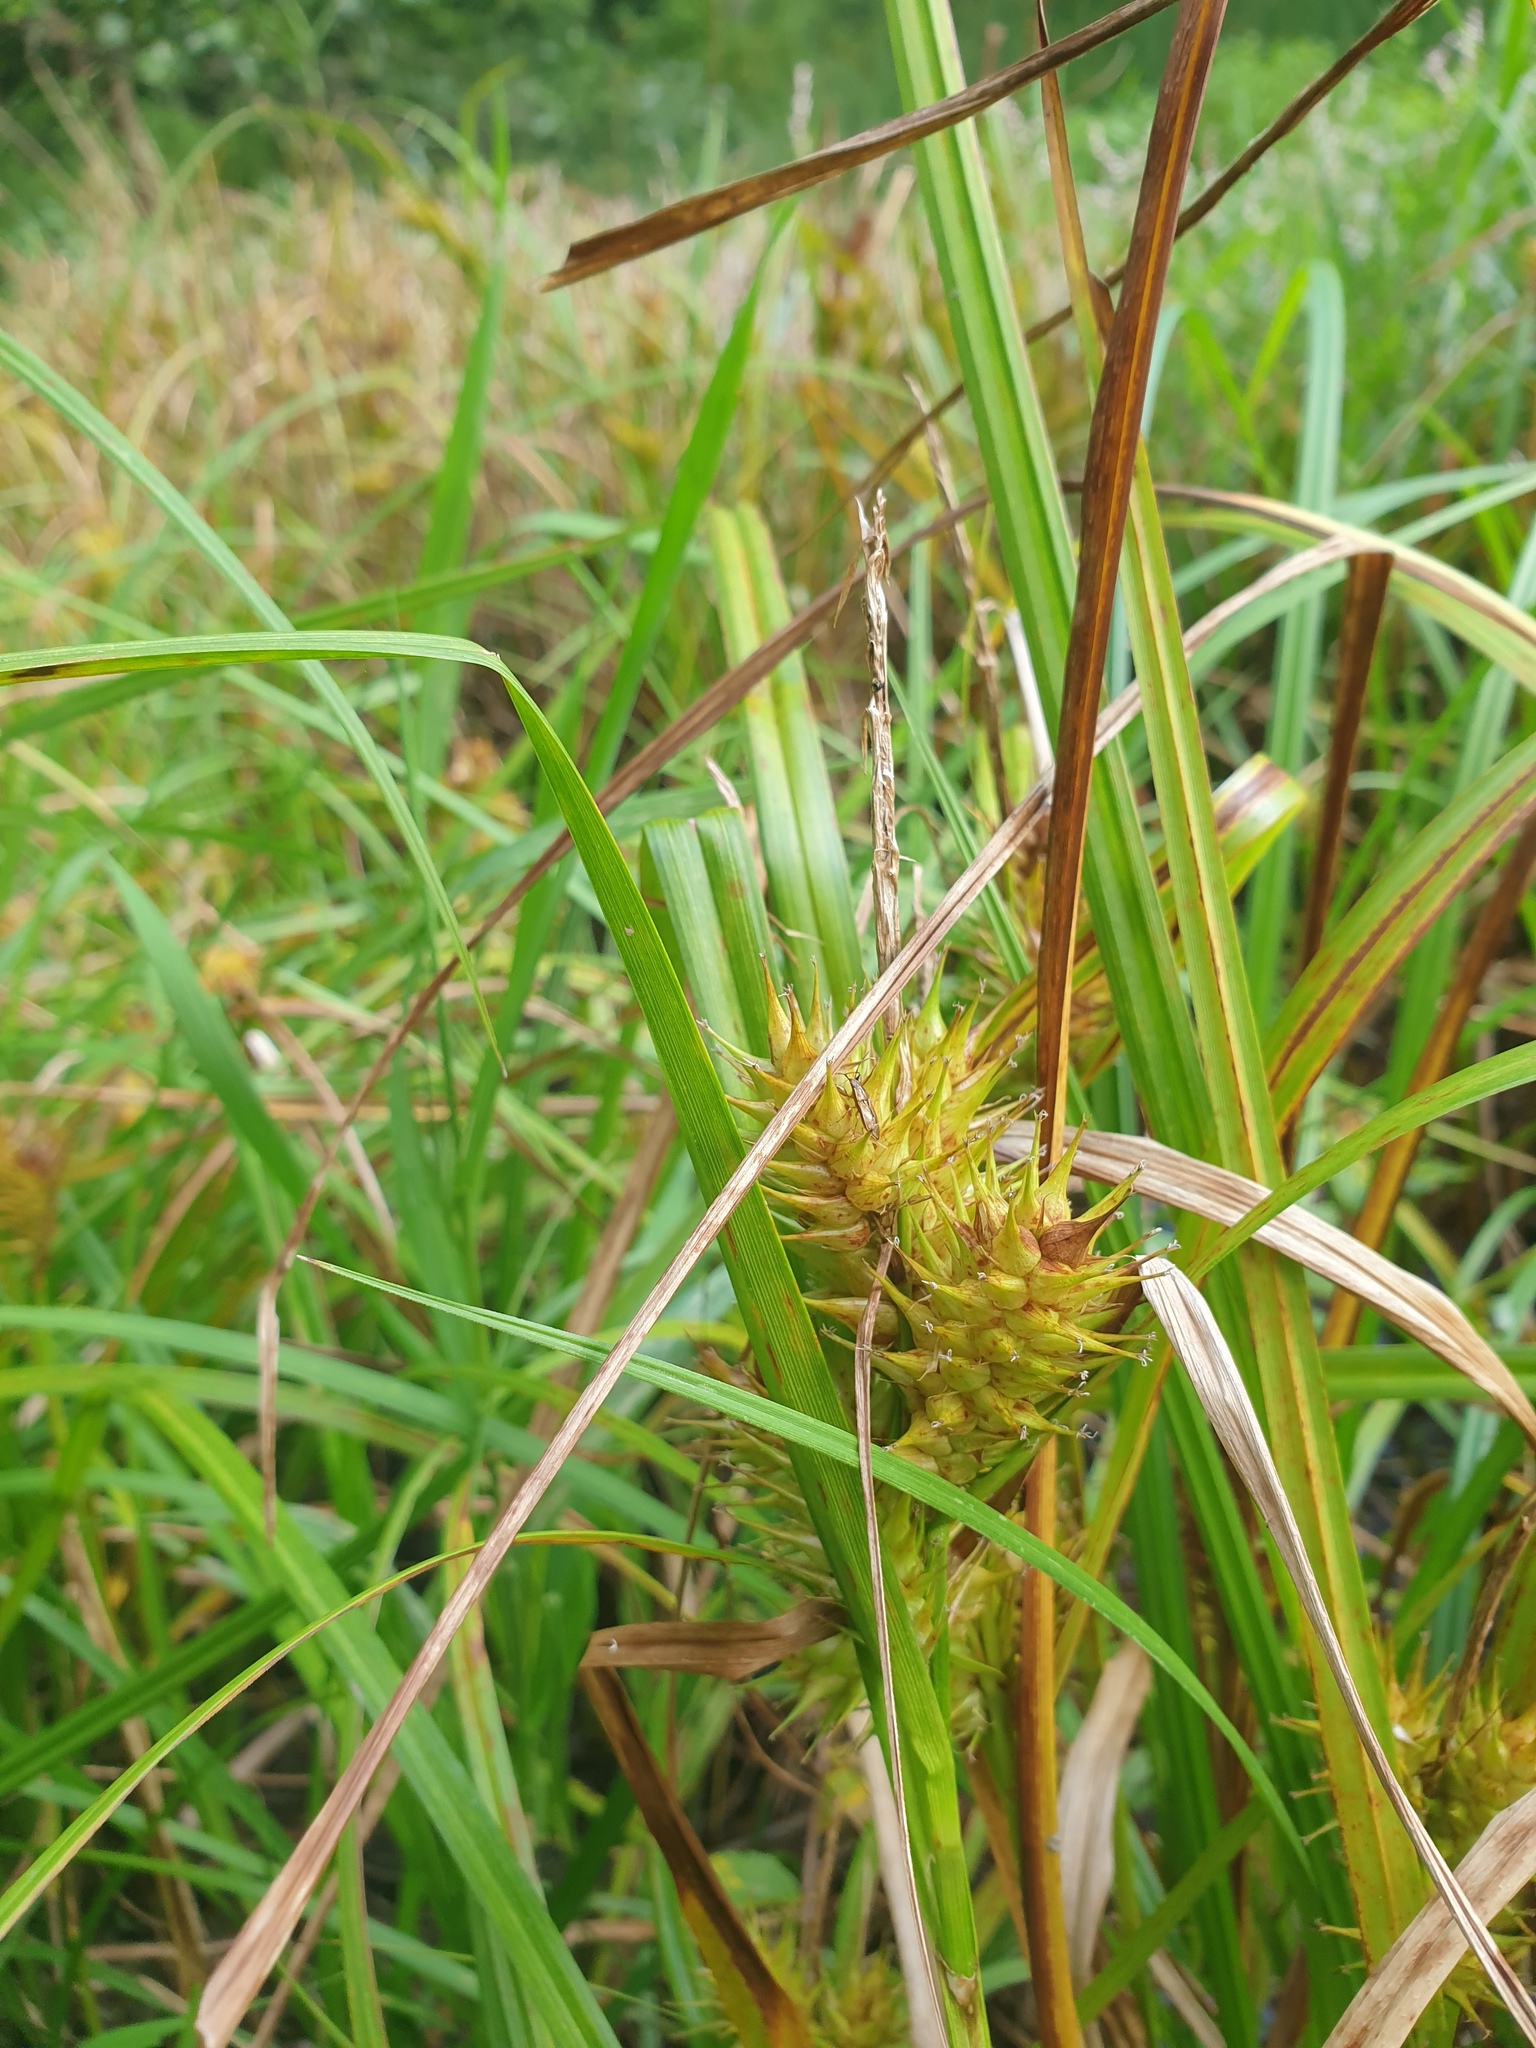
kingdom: Plantae
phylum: Tracheophyta
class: Liliopsida
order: Poales
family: Cyperaceae
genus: Carex
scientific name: Carex lupulina
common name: Hop sedge
